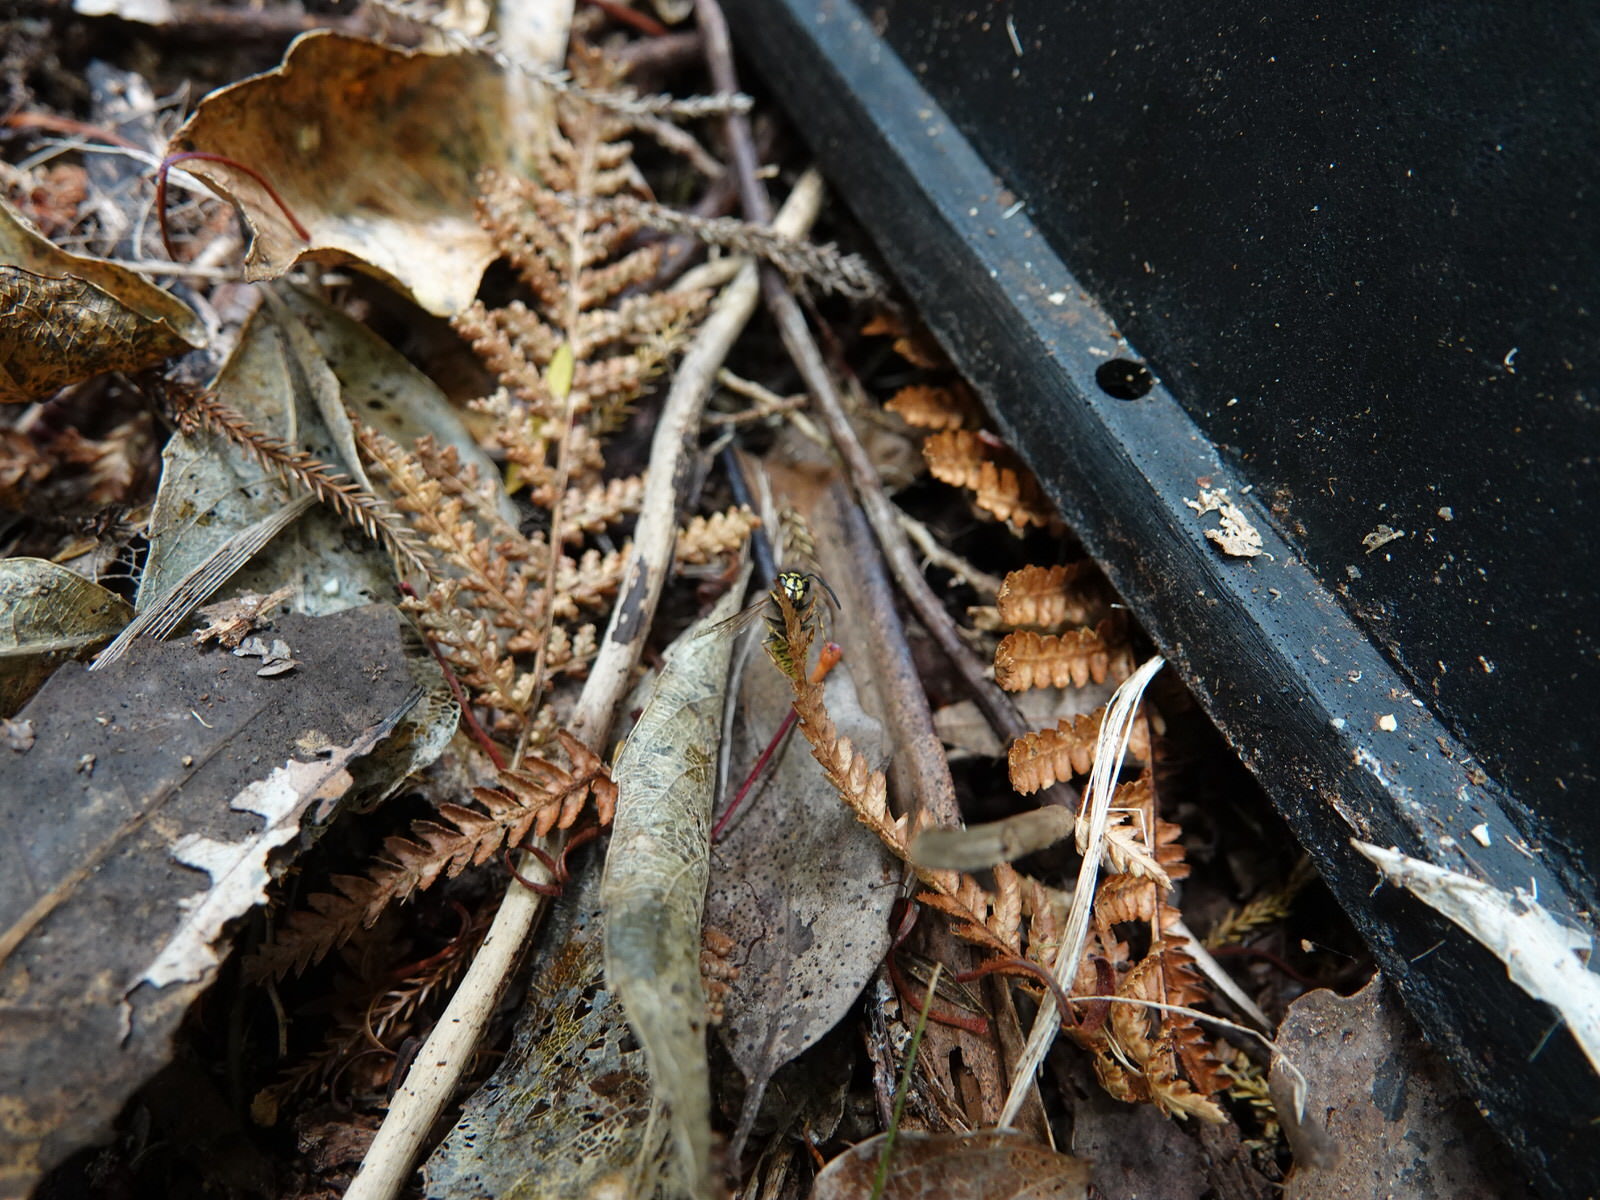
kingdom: Animalia
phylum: Arthropoda
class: Insecta
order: Hymenoptera
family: Vespidae
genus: Vespula
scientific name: Vespula vulgaris
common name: Common wasp
